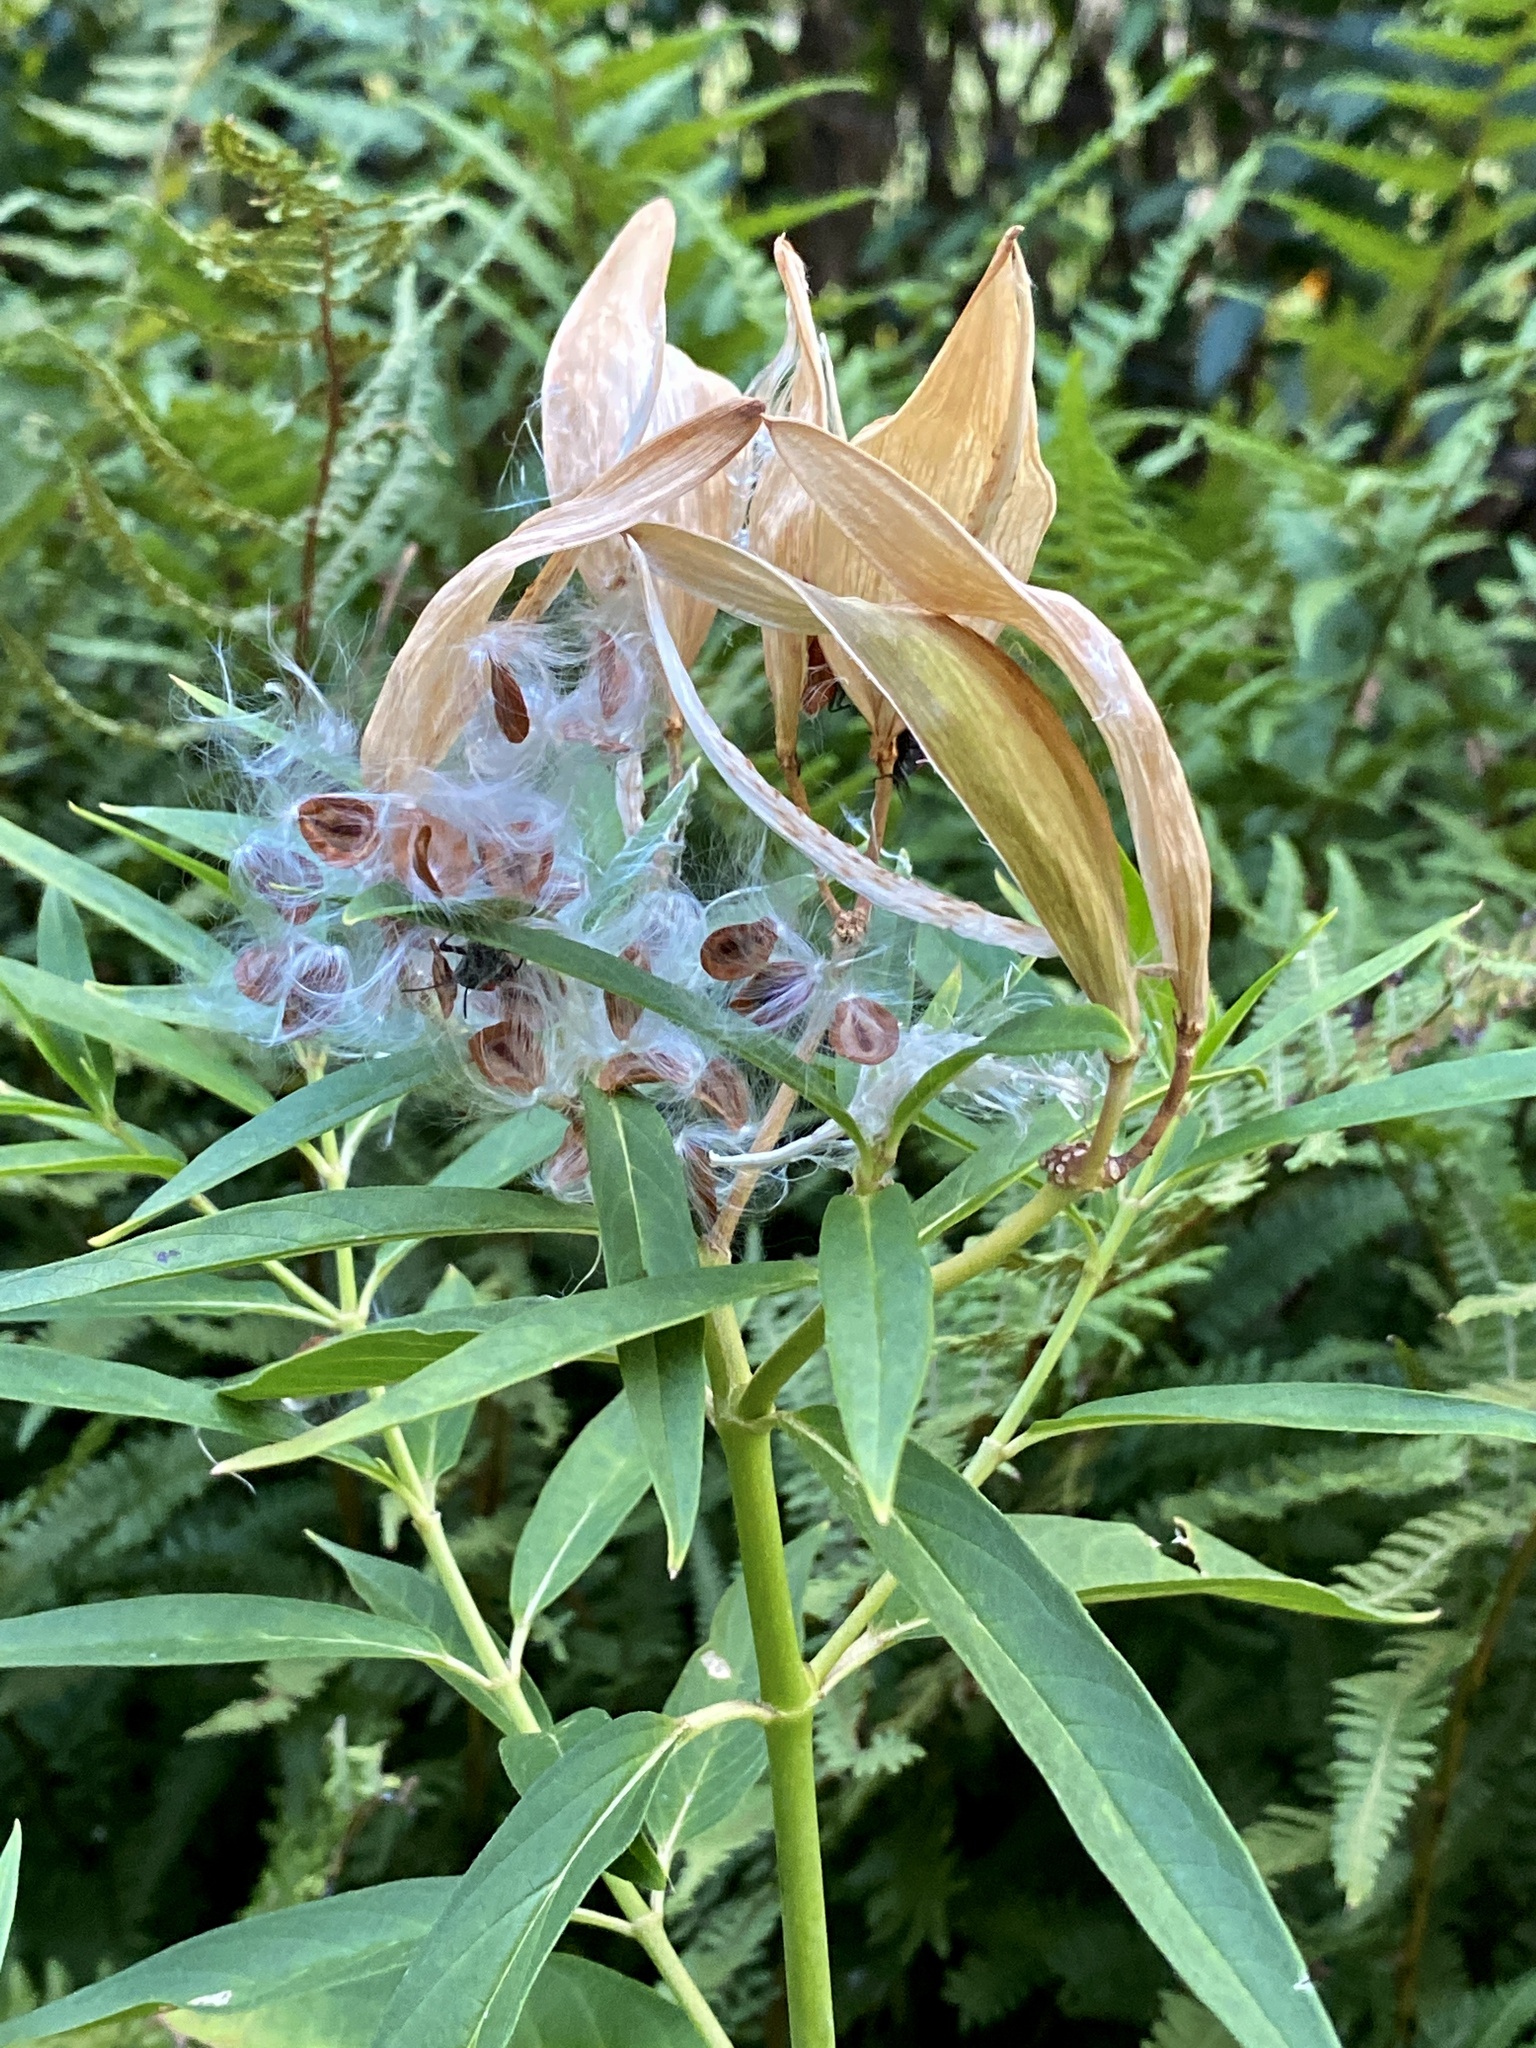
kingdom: Plantae
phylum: Tracheophyta
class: Magnoliopsida
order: Gentianales
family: Apocynaceae
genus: Asclepias
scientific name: Asclepias incarnata
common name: Swamp milkweed
